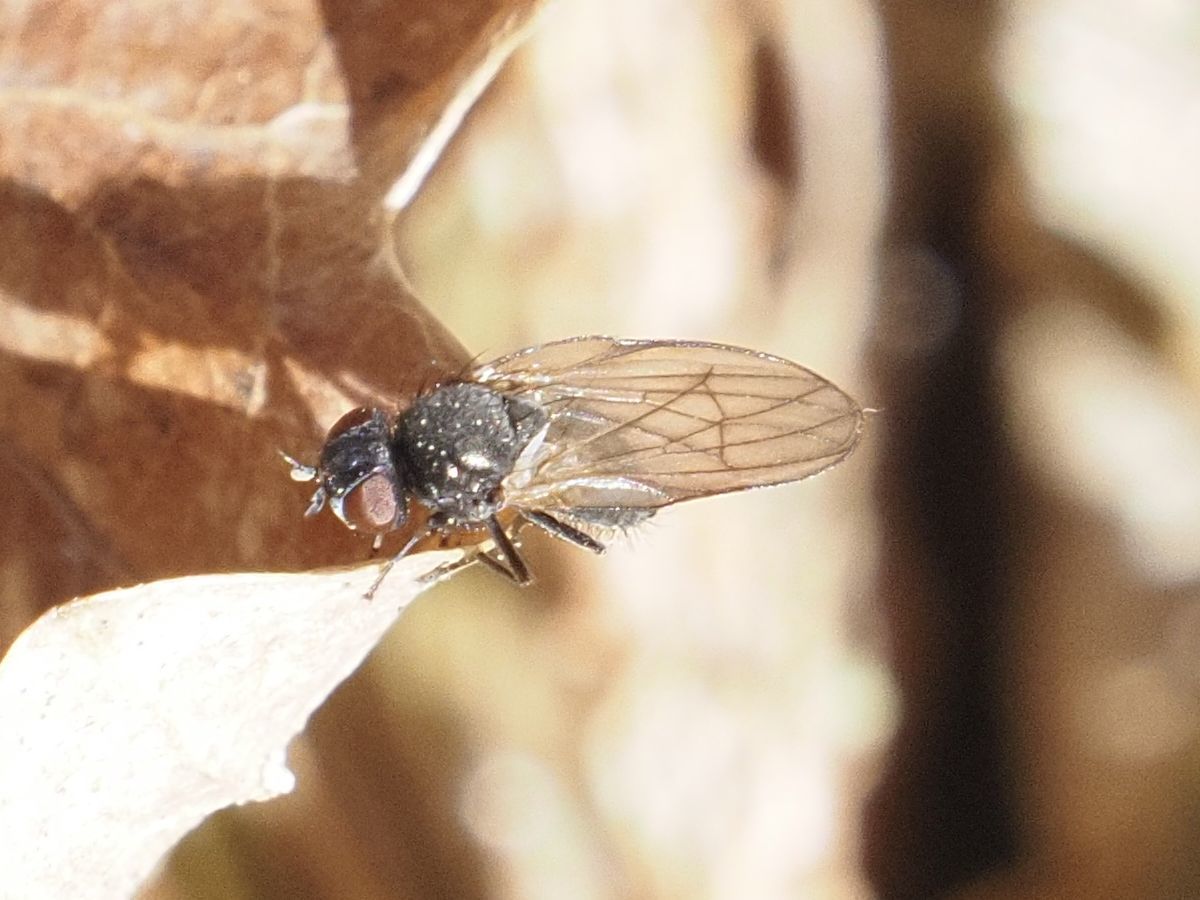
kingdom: Animalia
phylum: Arthropoda
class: Insecta
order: Diptera
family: Lonchaeidae
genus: Earomyia
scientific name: Earomyia lonchaeoides
